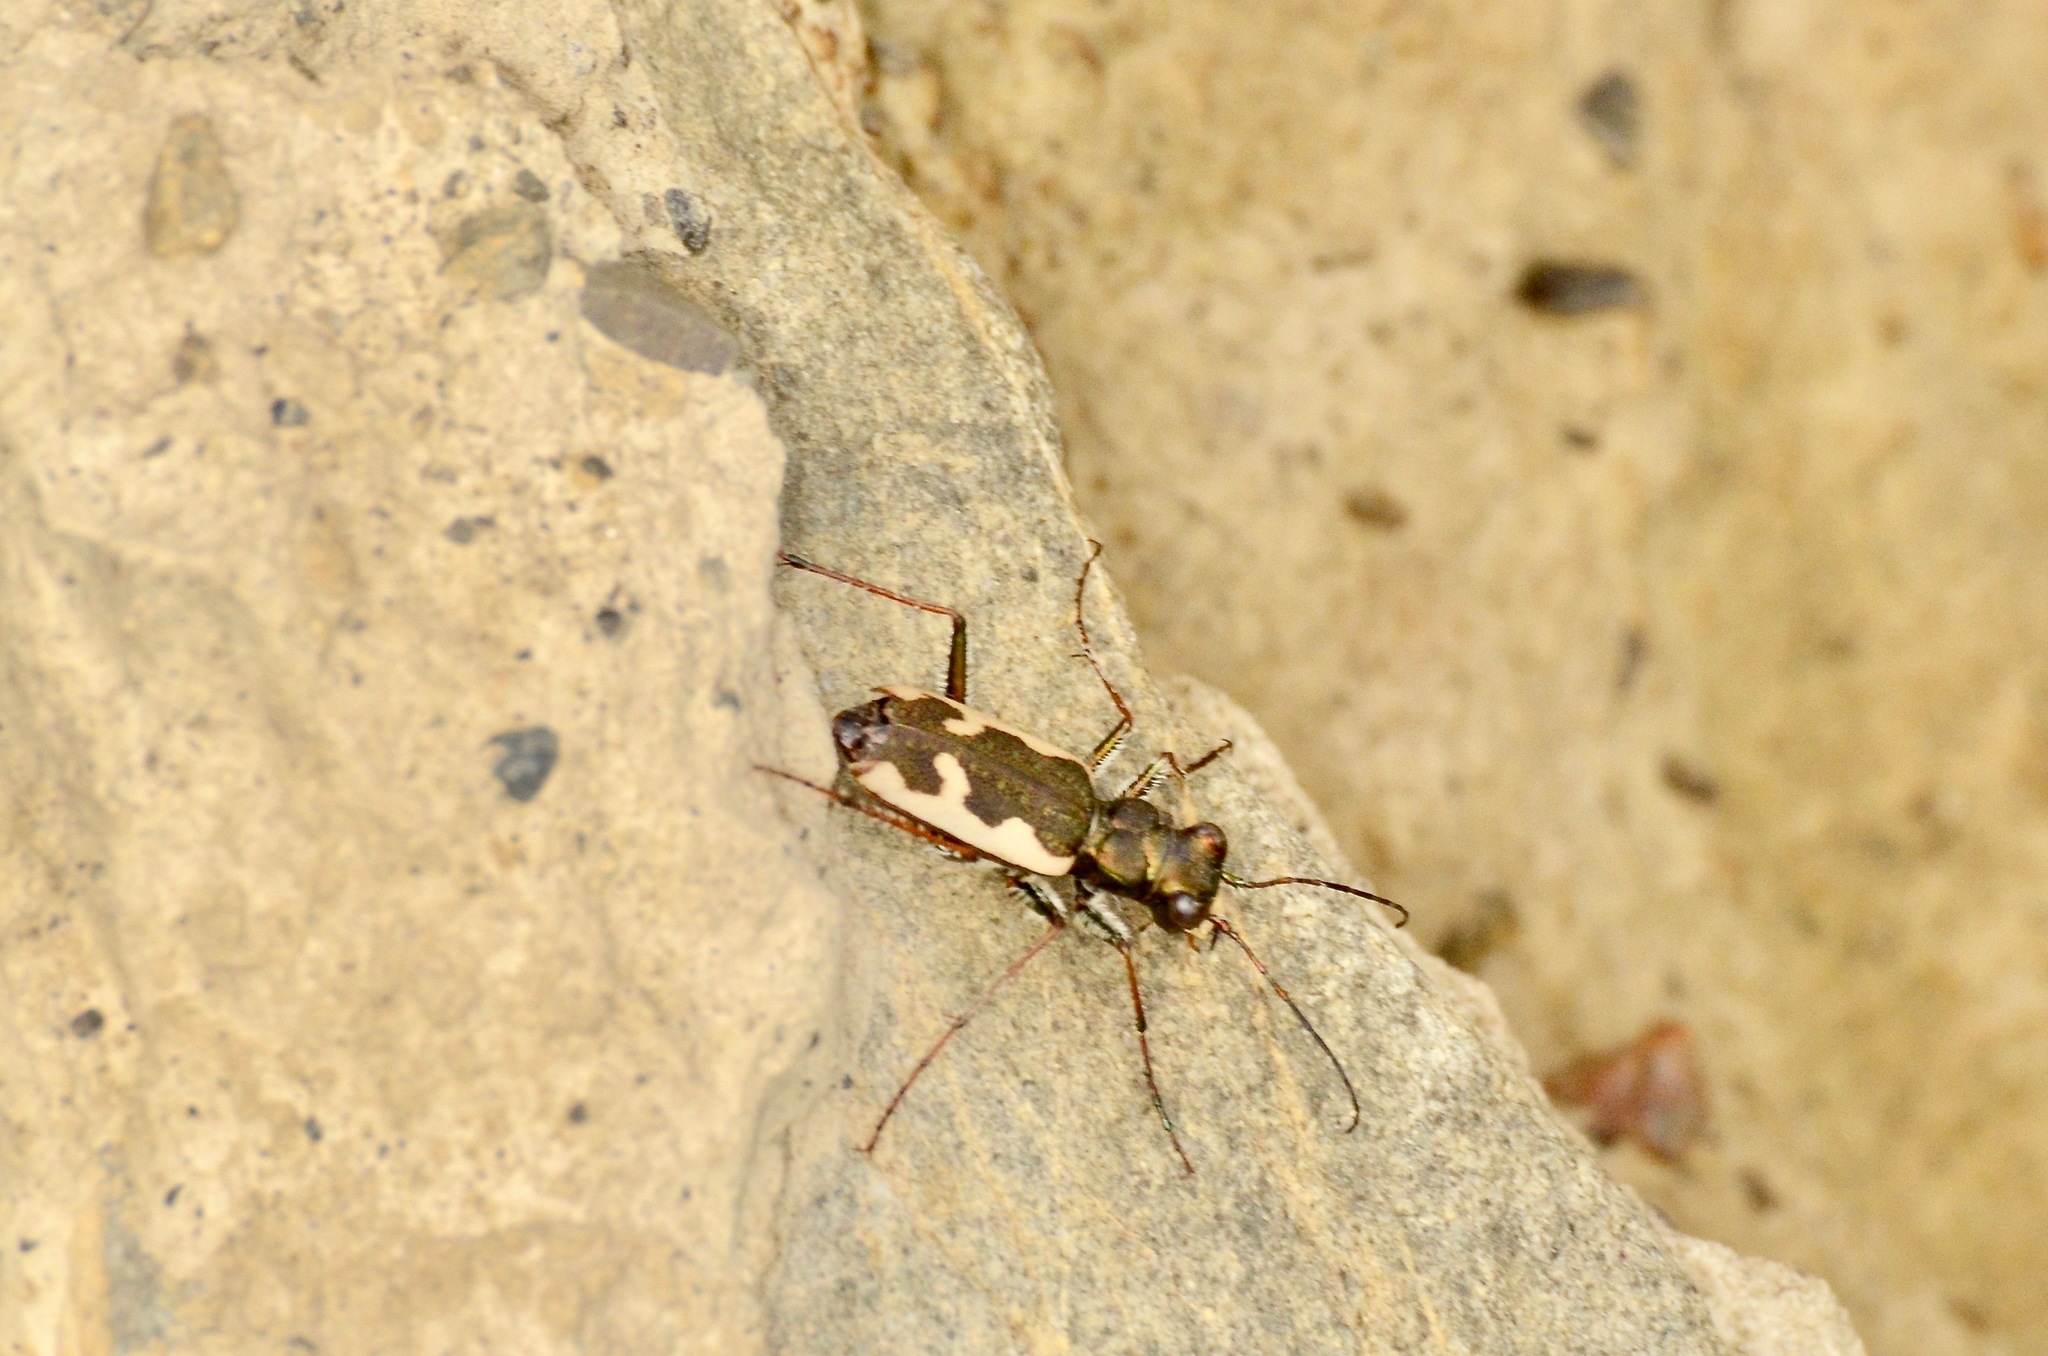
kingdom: Animalia
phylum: Arthropoda
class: Insecta
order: Coleoptera
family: Carabidae
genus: Neocicindela
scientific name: Neocicindela latecincta
